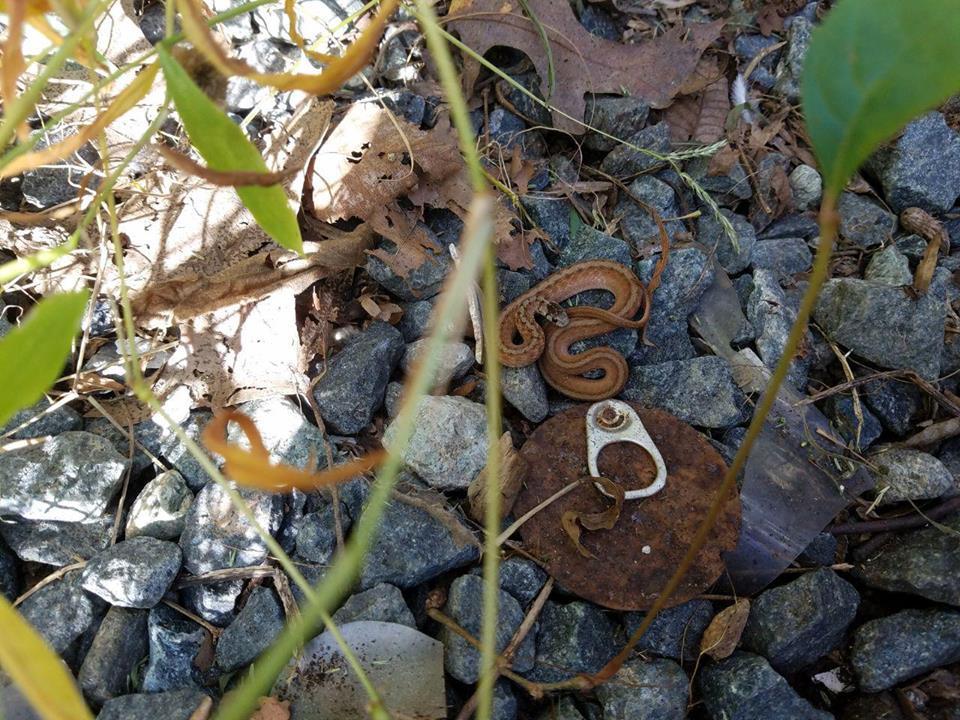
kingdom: Animalia
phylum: Chordata
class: Squamata
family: Colubridae
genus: Storeria
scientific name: Storeria dekayi
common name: (dekay’s) brown snake
